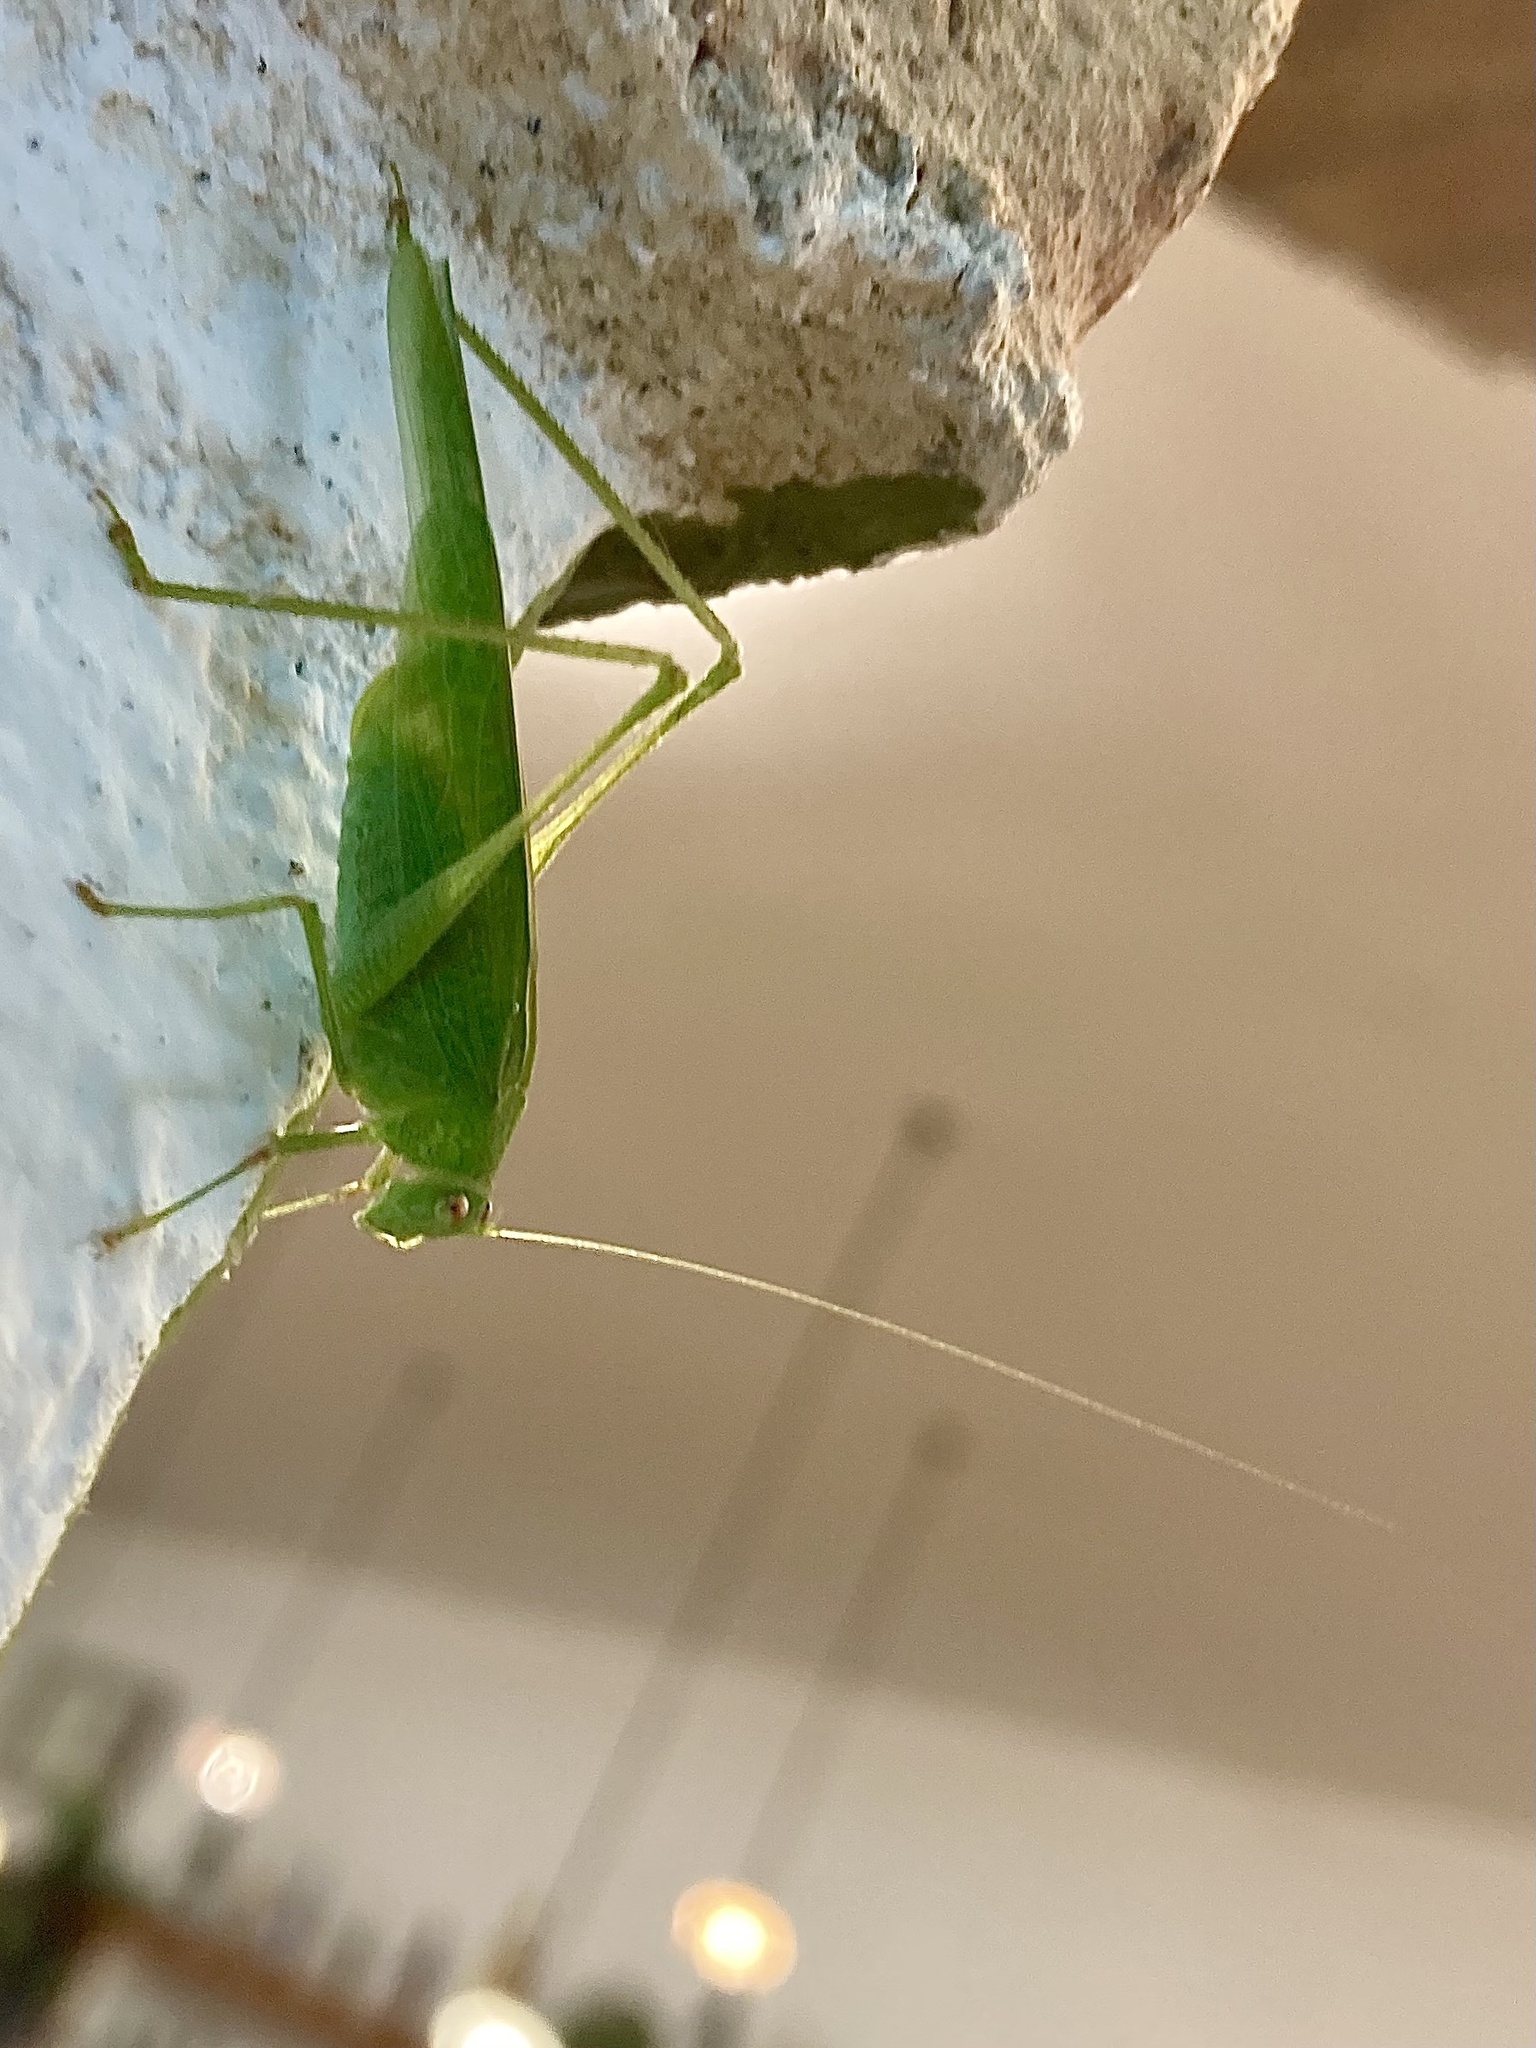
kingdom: Animalia
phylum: Arthropoda
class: Insecta
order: Orthoptera
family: Tettigoniidae
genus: Phaneroptera
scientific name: Phaneroptera nana
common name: Southern sickle bush-cricket
